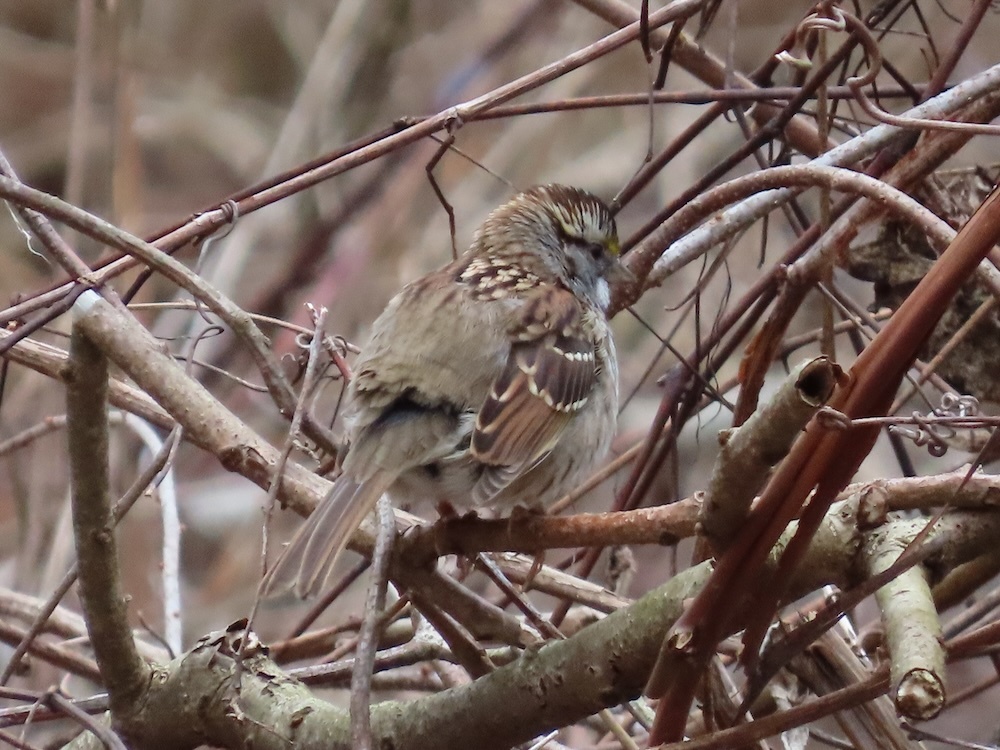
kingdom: Animalia
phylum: Chordata
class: Aves
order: Passeriformes
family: Passerellidae
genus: Zonotrichia
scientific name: Zonotrichia albicollis
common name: White-throated sparrow
